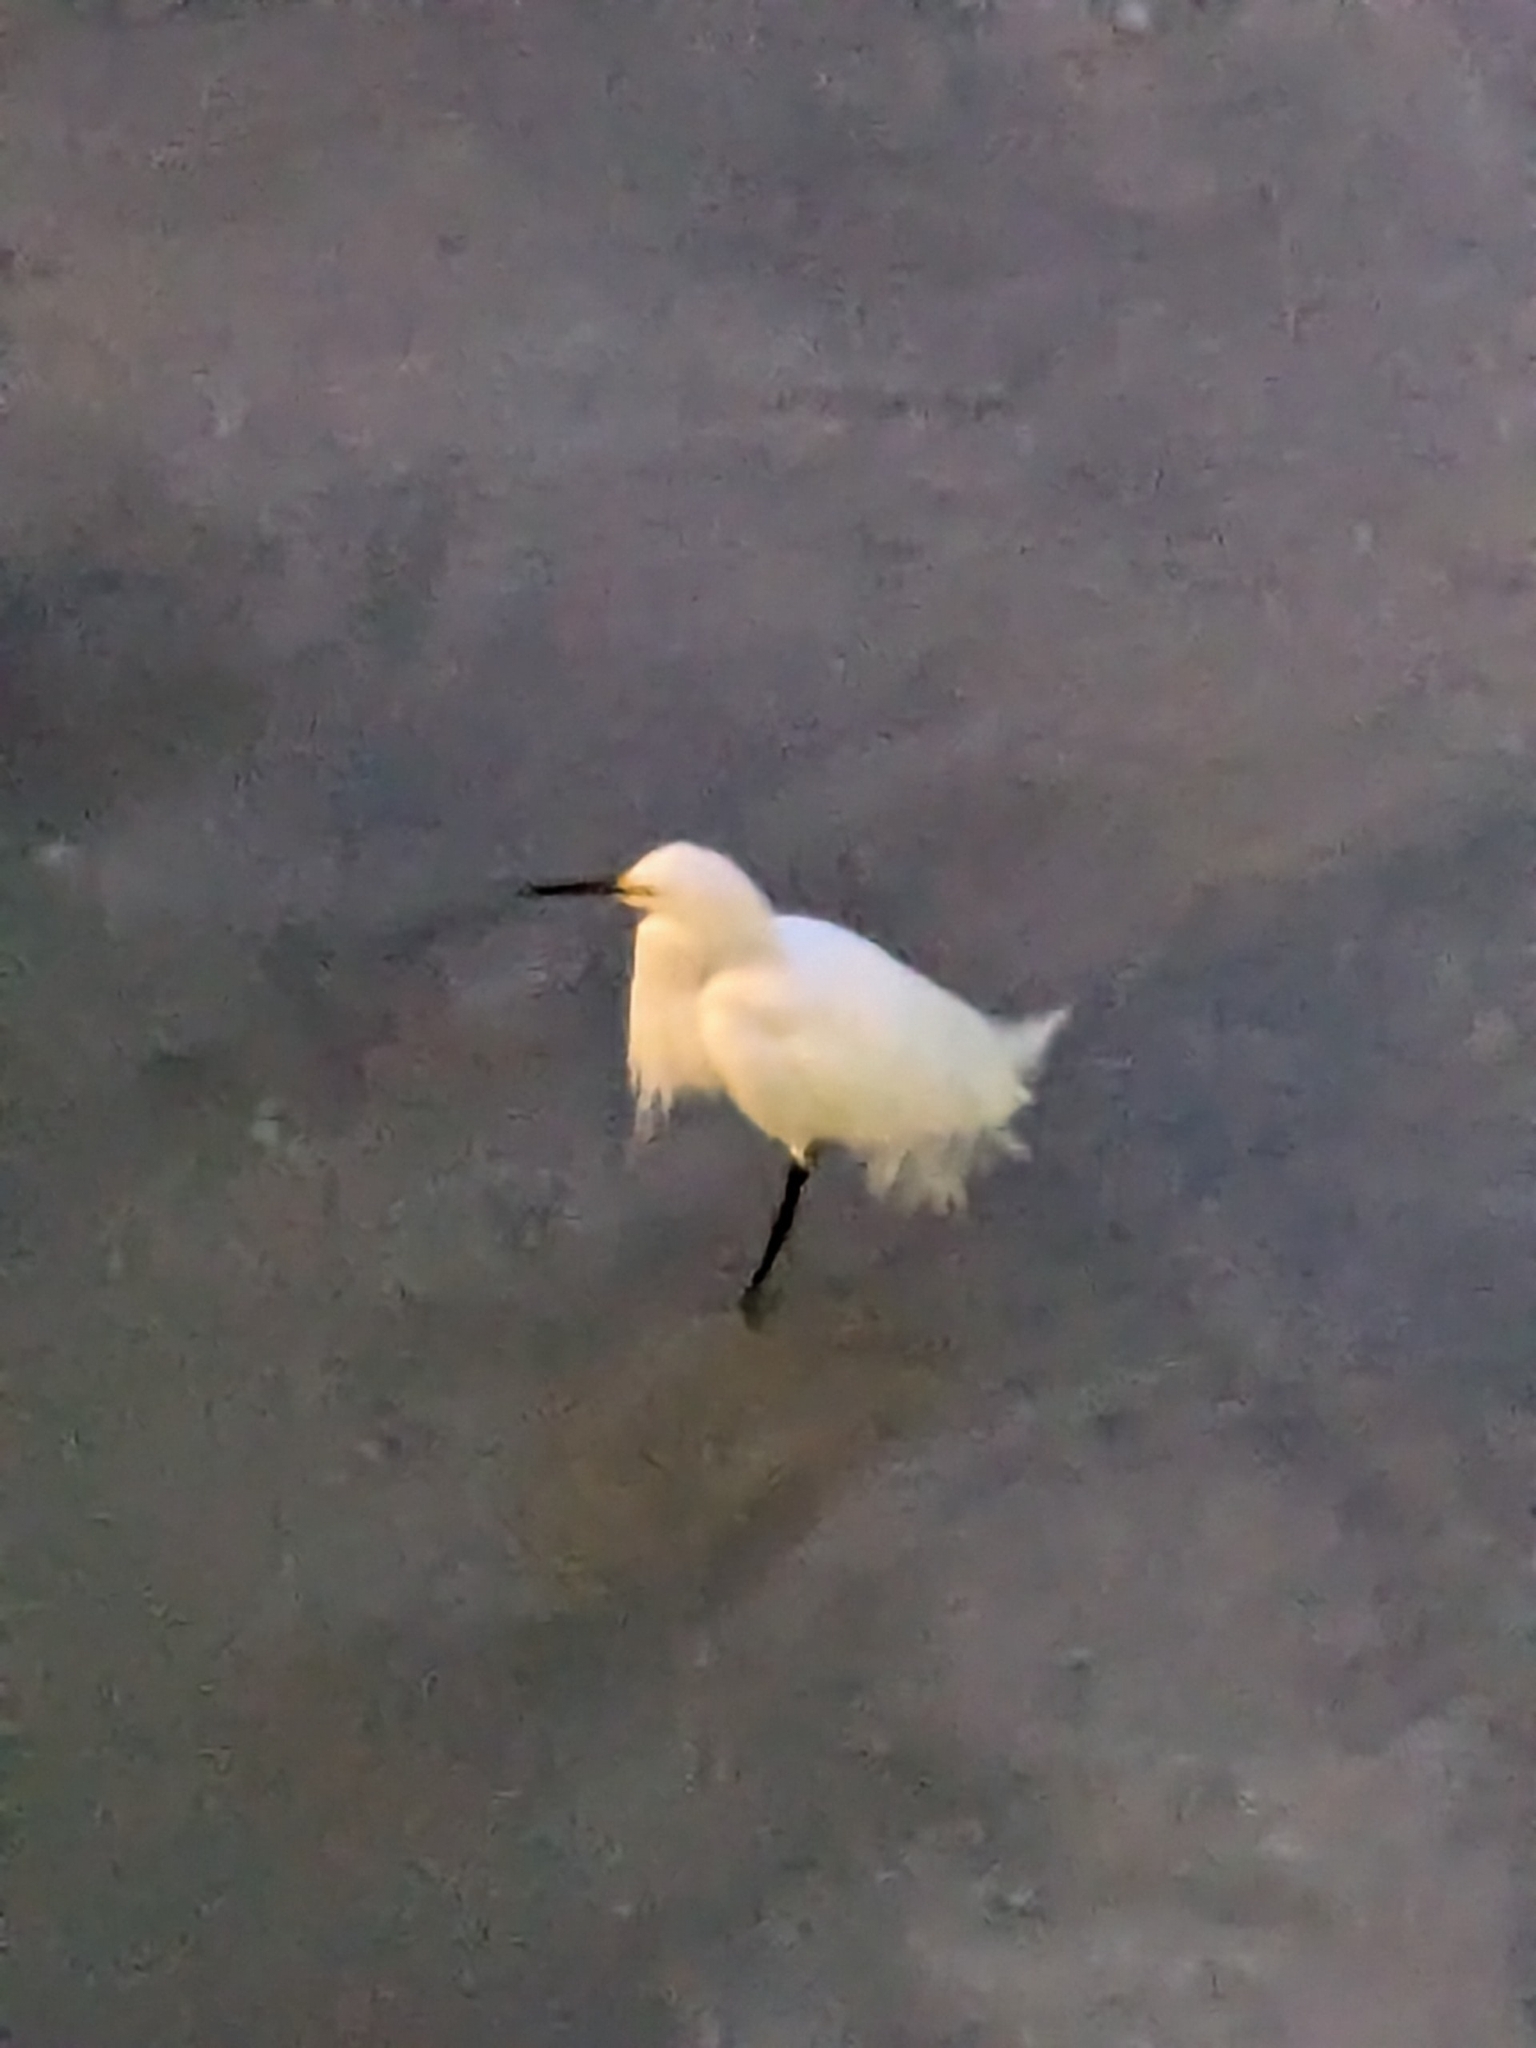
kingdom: Animalia
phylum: Chordata
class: Aves
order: Pelecaniformes
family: Ardeidae
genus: Egretta
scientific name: Egretta thula
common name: Snowy egret
